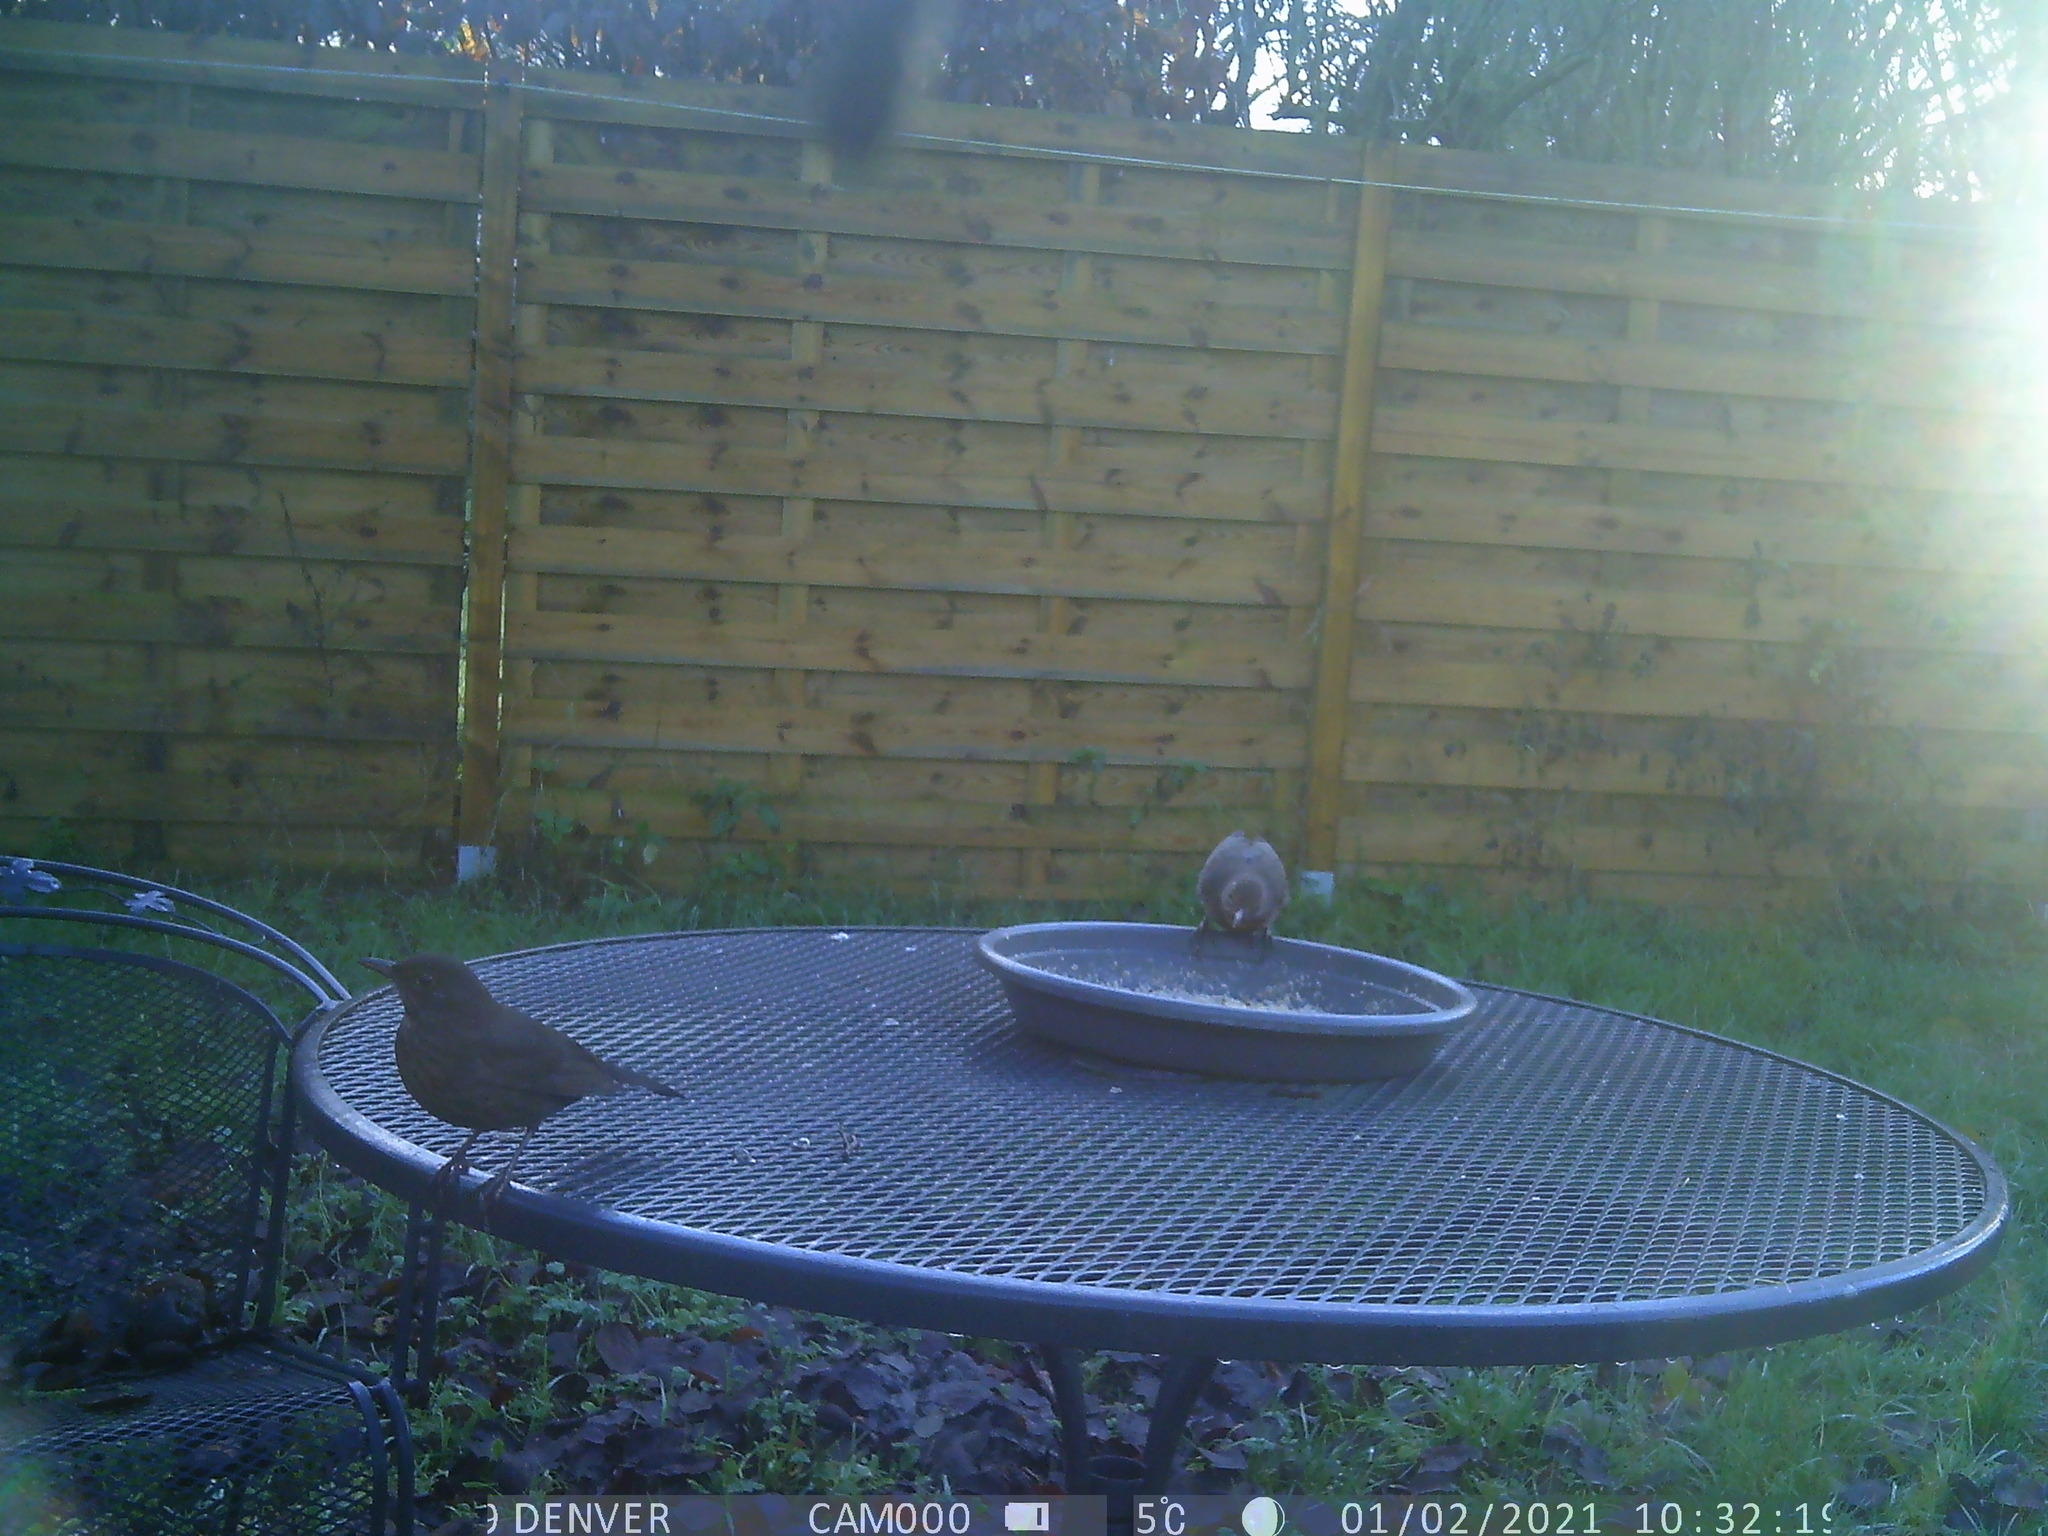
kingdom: Animalia
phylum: Chordata
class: Aves
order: Passeriformes
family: Turdidae
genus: Turdus
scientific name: Turdus merula
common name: Common blackbird
